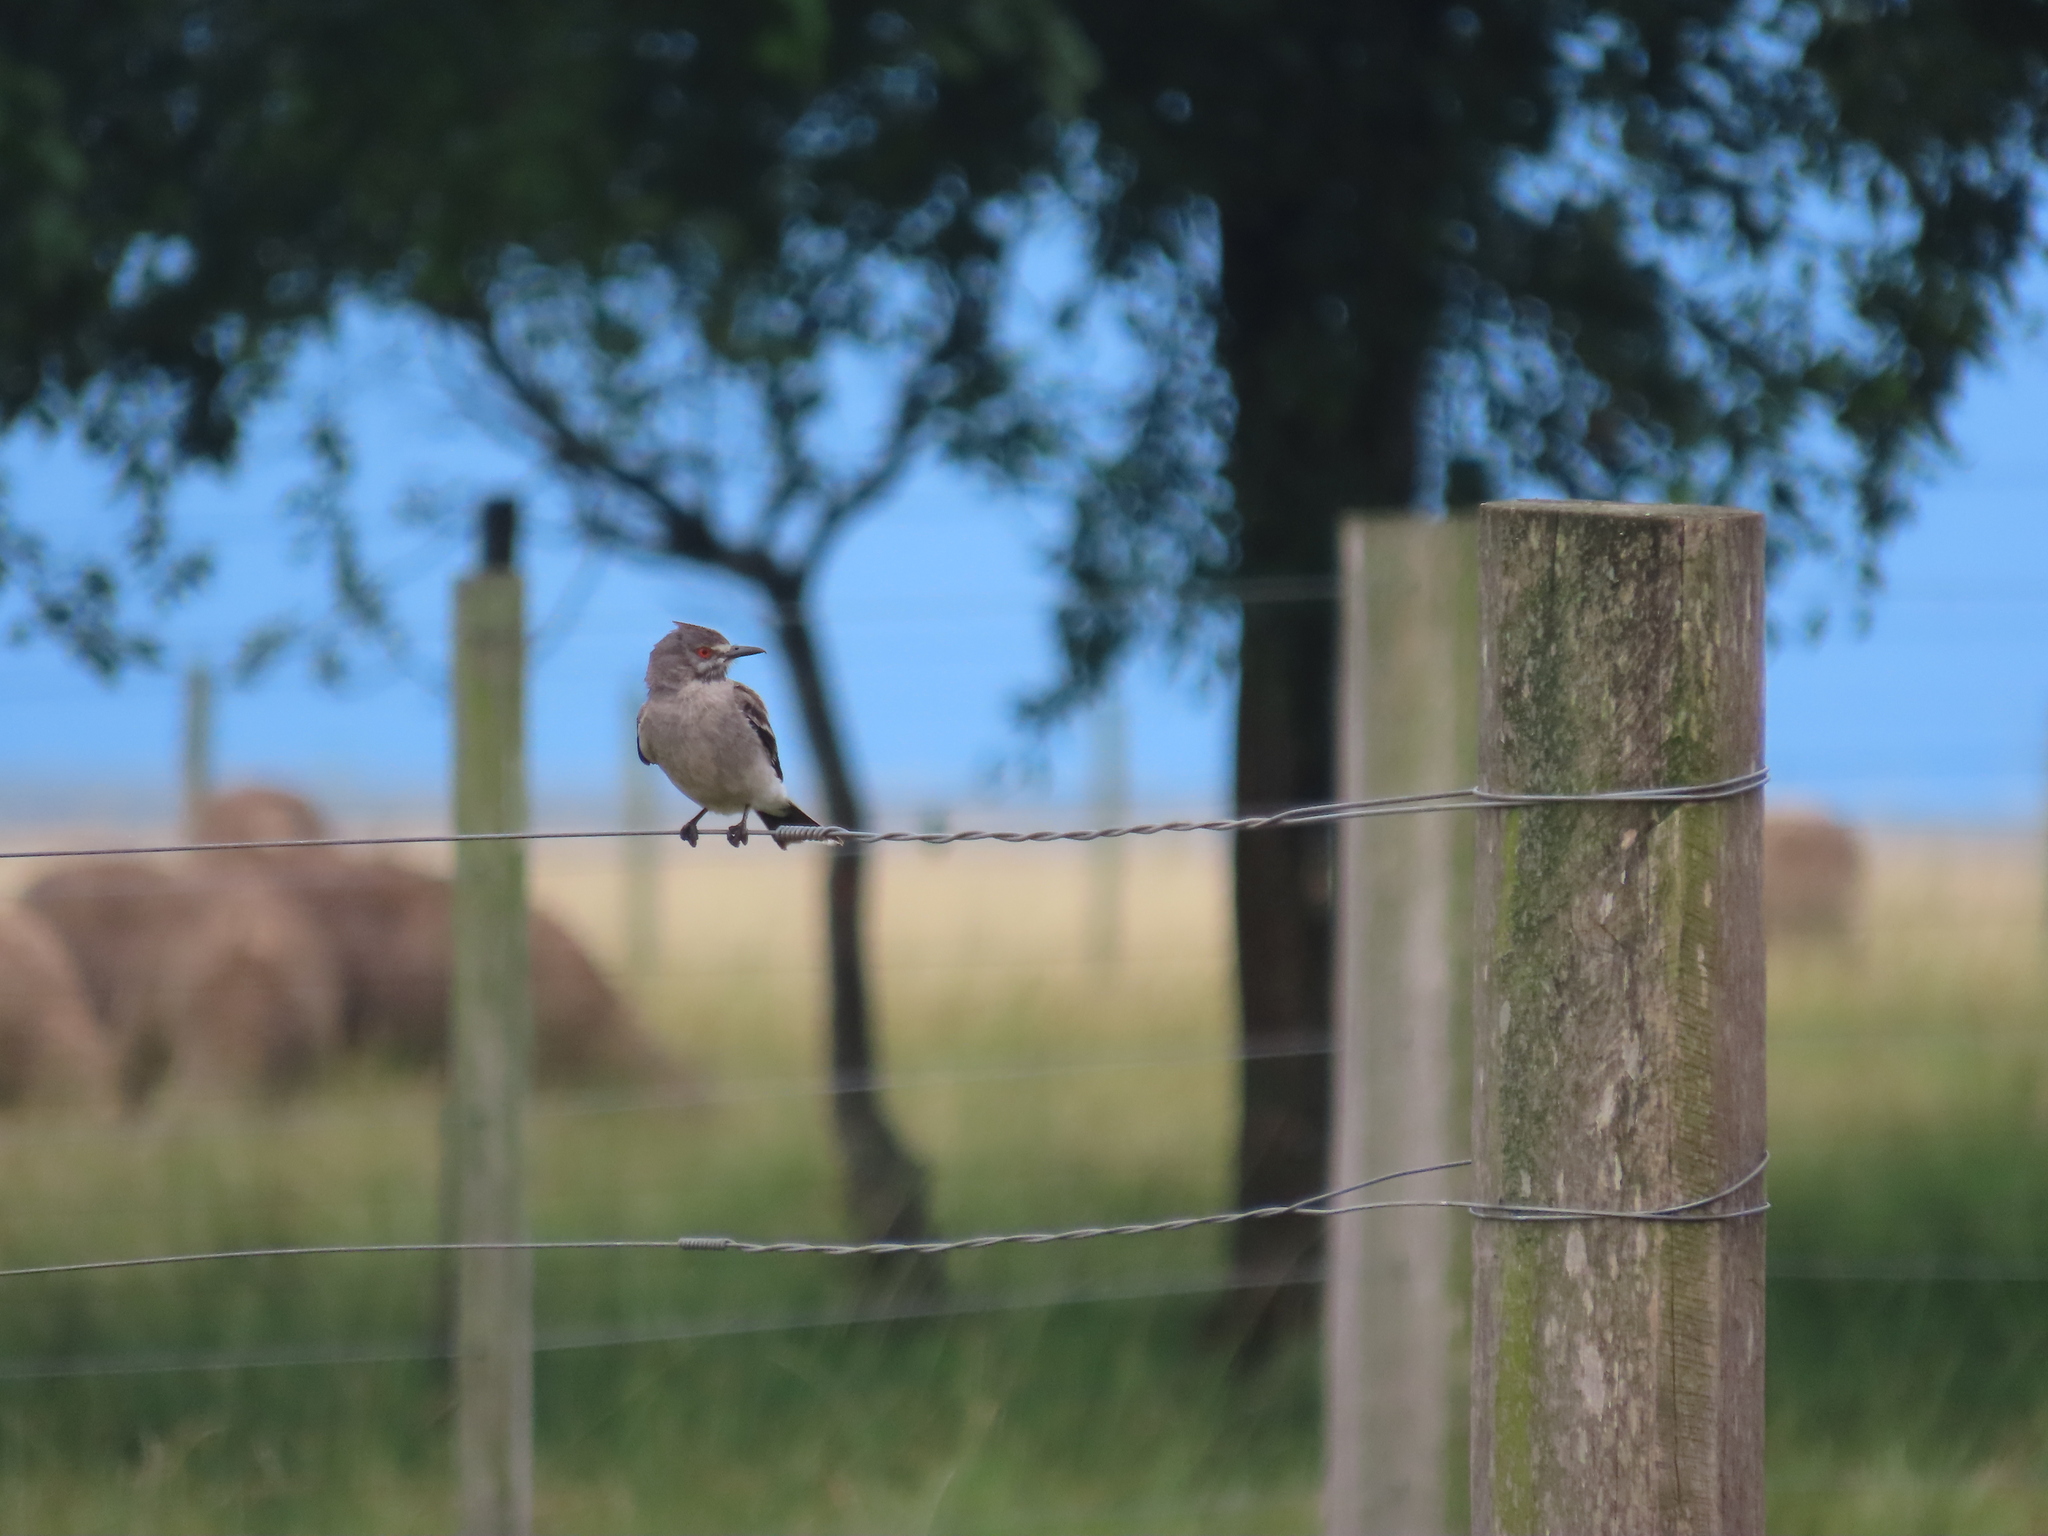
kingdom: Animalia
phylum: Chordata
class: Aves
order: Passeriformes
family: Tyrannidae
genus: Xolmis
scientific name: Xolmis cinereus
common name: Grey monjita
